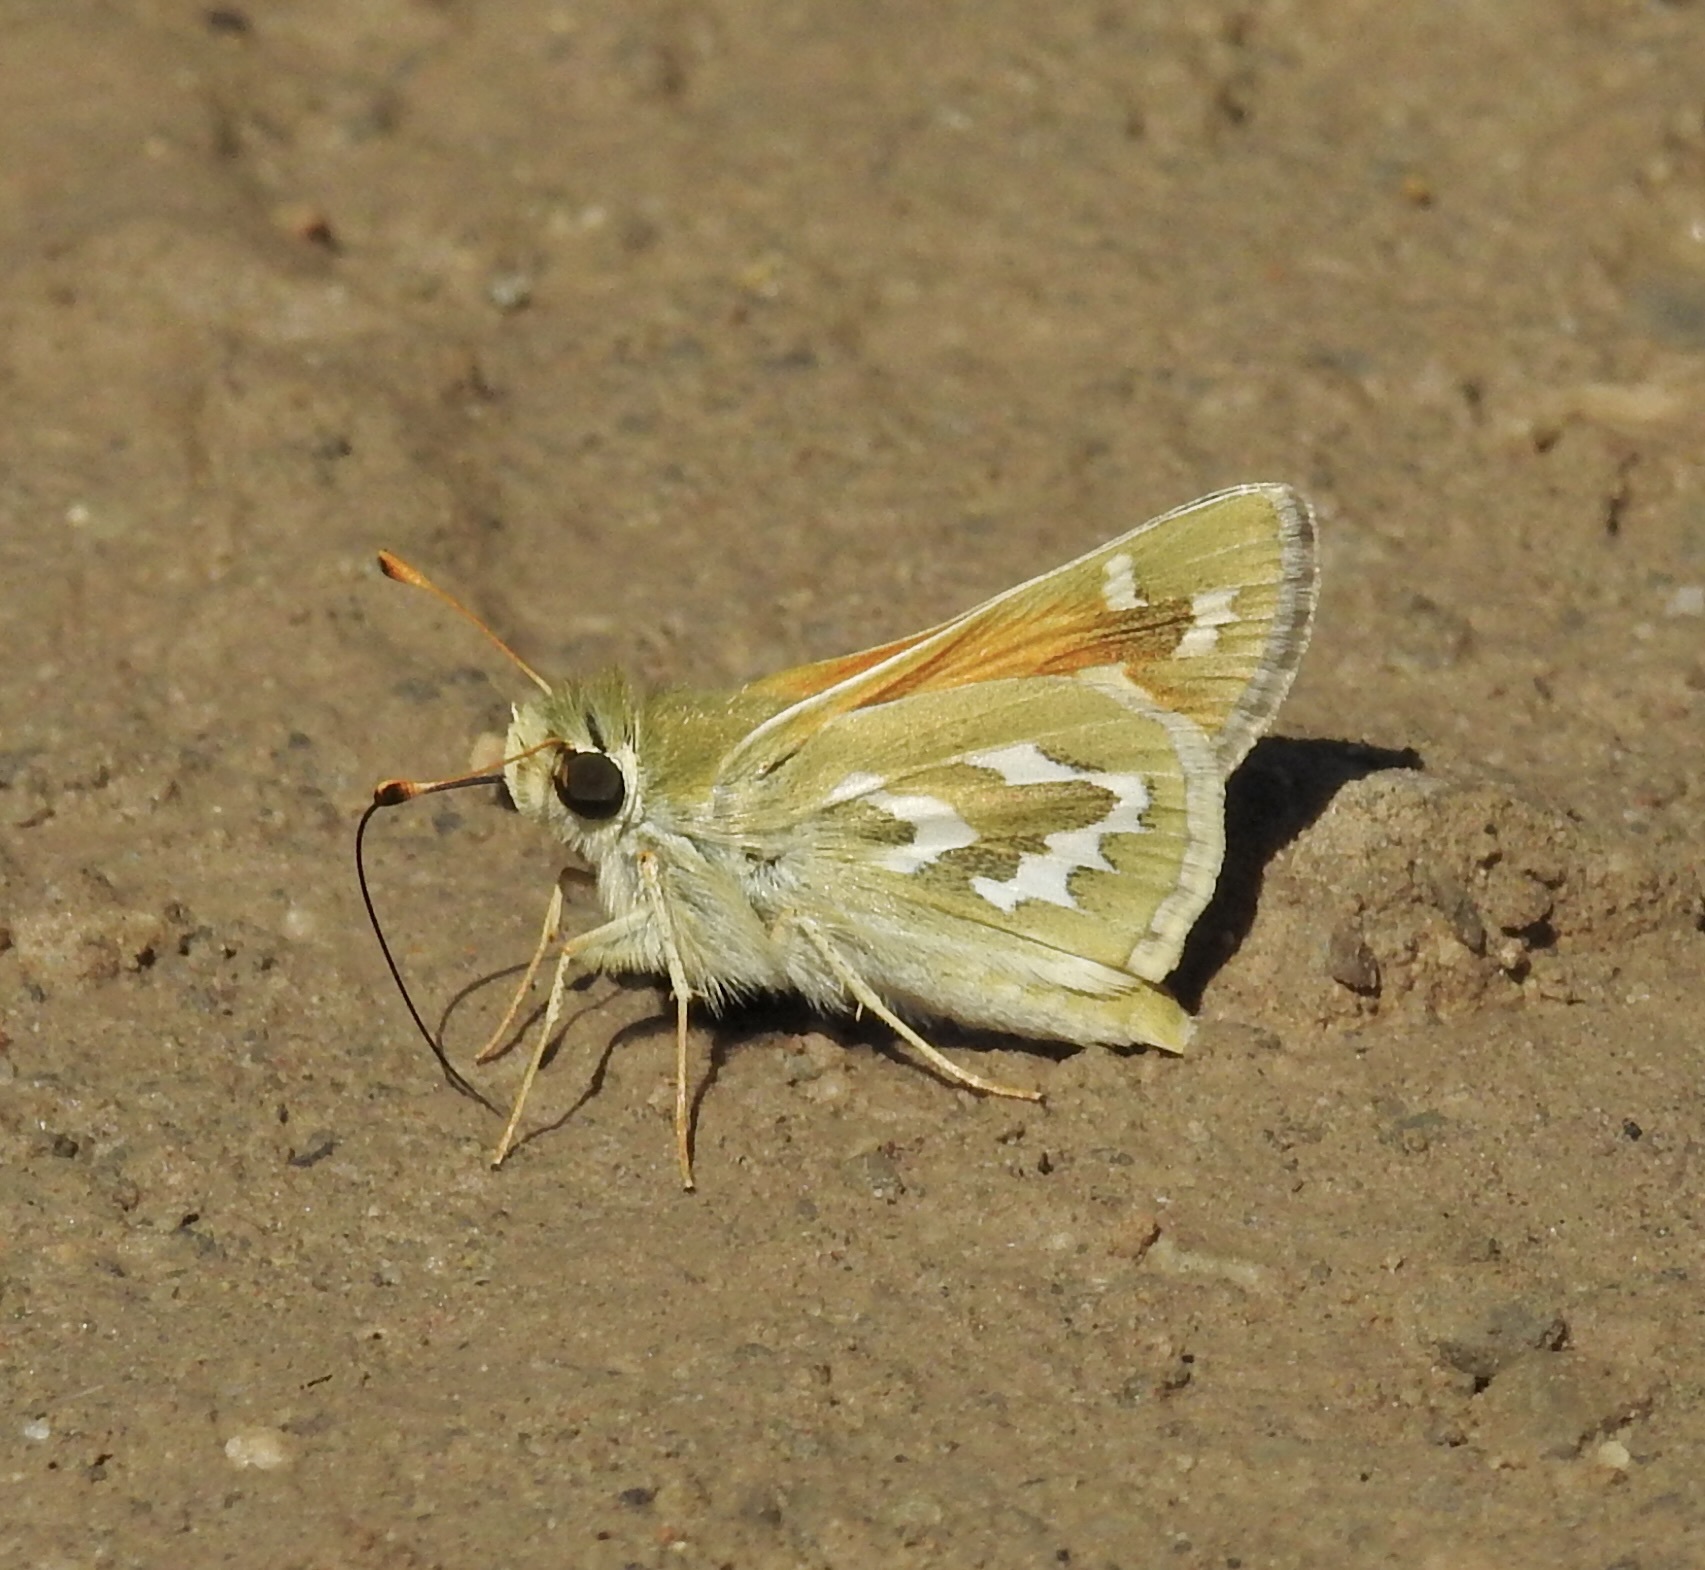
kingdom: Animalia
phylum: Arthropoda
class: Insecta
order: Lepidoptera
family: Hesperiidae
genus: Hesperia
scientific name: Hesperia comma
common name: Common branded skipper
